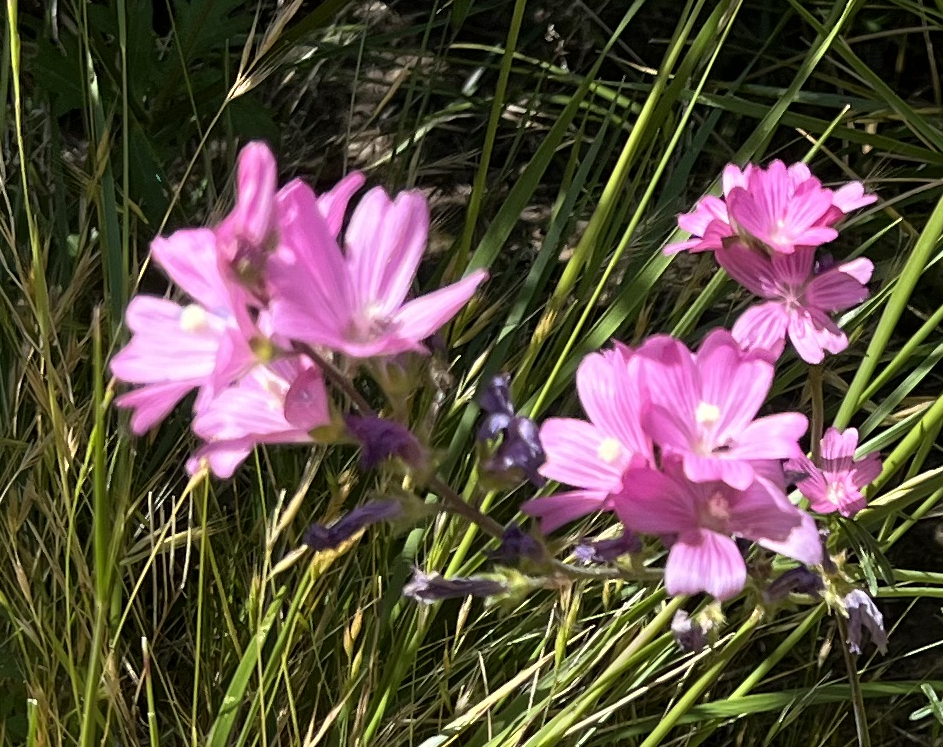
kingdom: Plantae
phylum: Tracheophyta
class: Magnoliopsida
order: Malvales
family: Malvaceae
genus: Sidalcea
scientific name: Sidalcea malviflora
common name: Greek mallow
